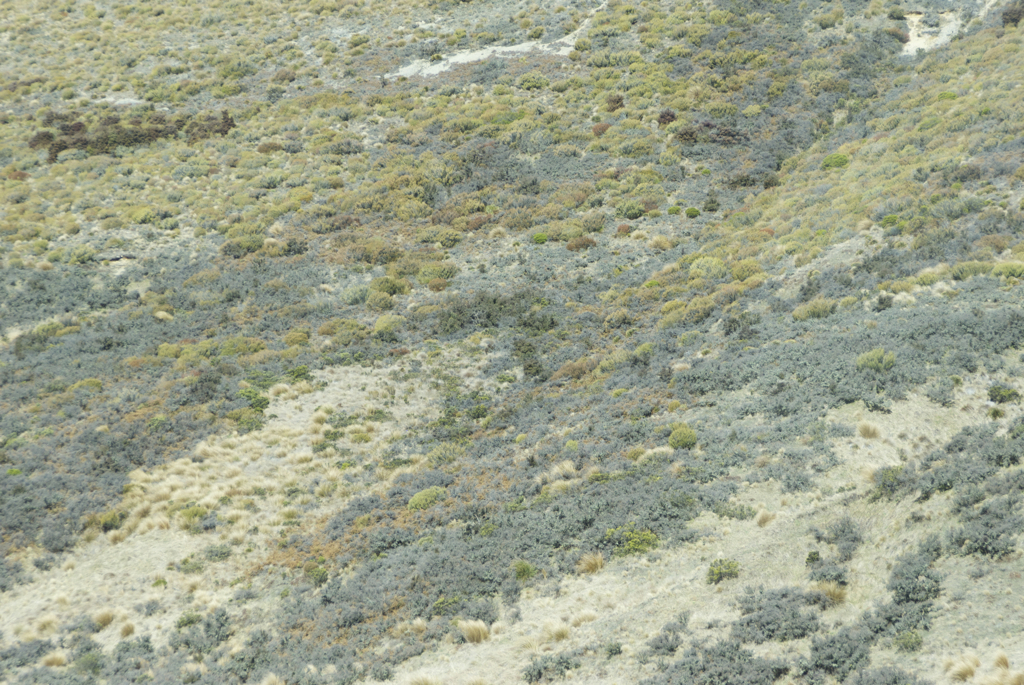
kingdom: Plantae
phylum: Tracheophyta
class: Magnoliopsida
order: Rosales
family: Rhamnaceae
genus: Discaria
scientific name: Discaria toumatou
